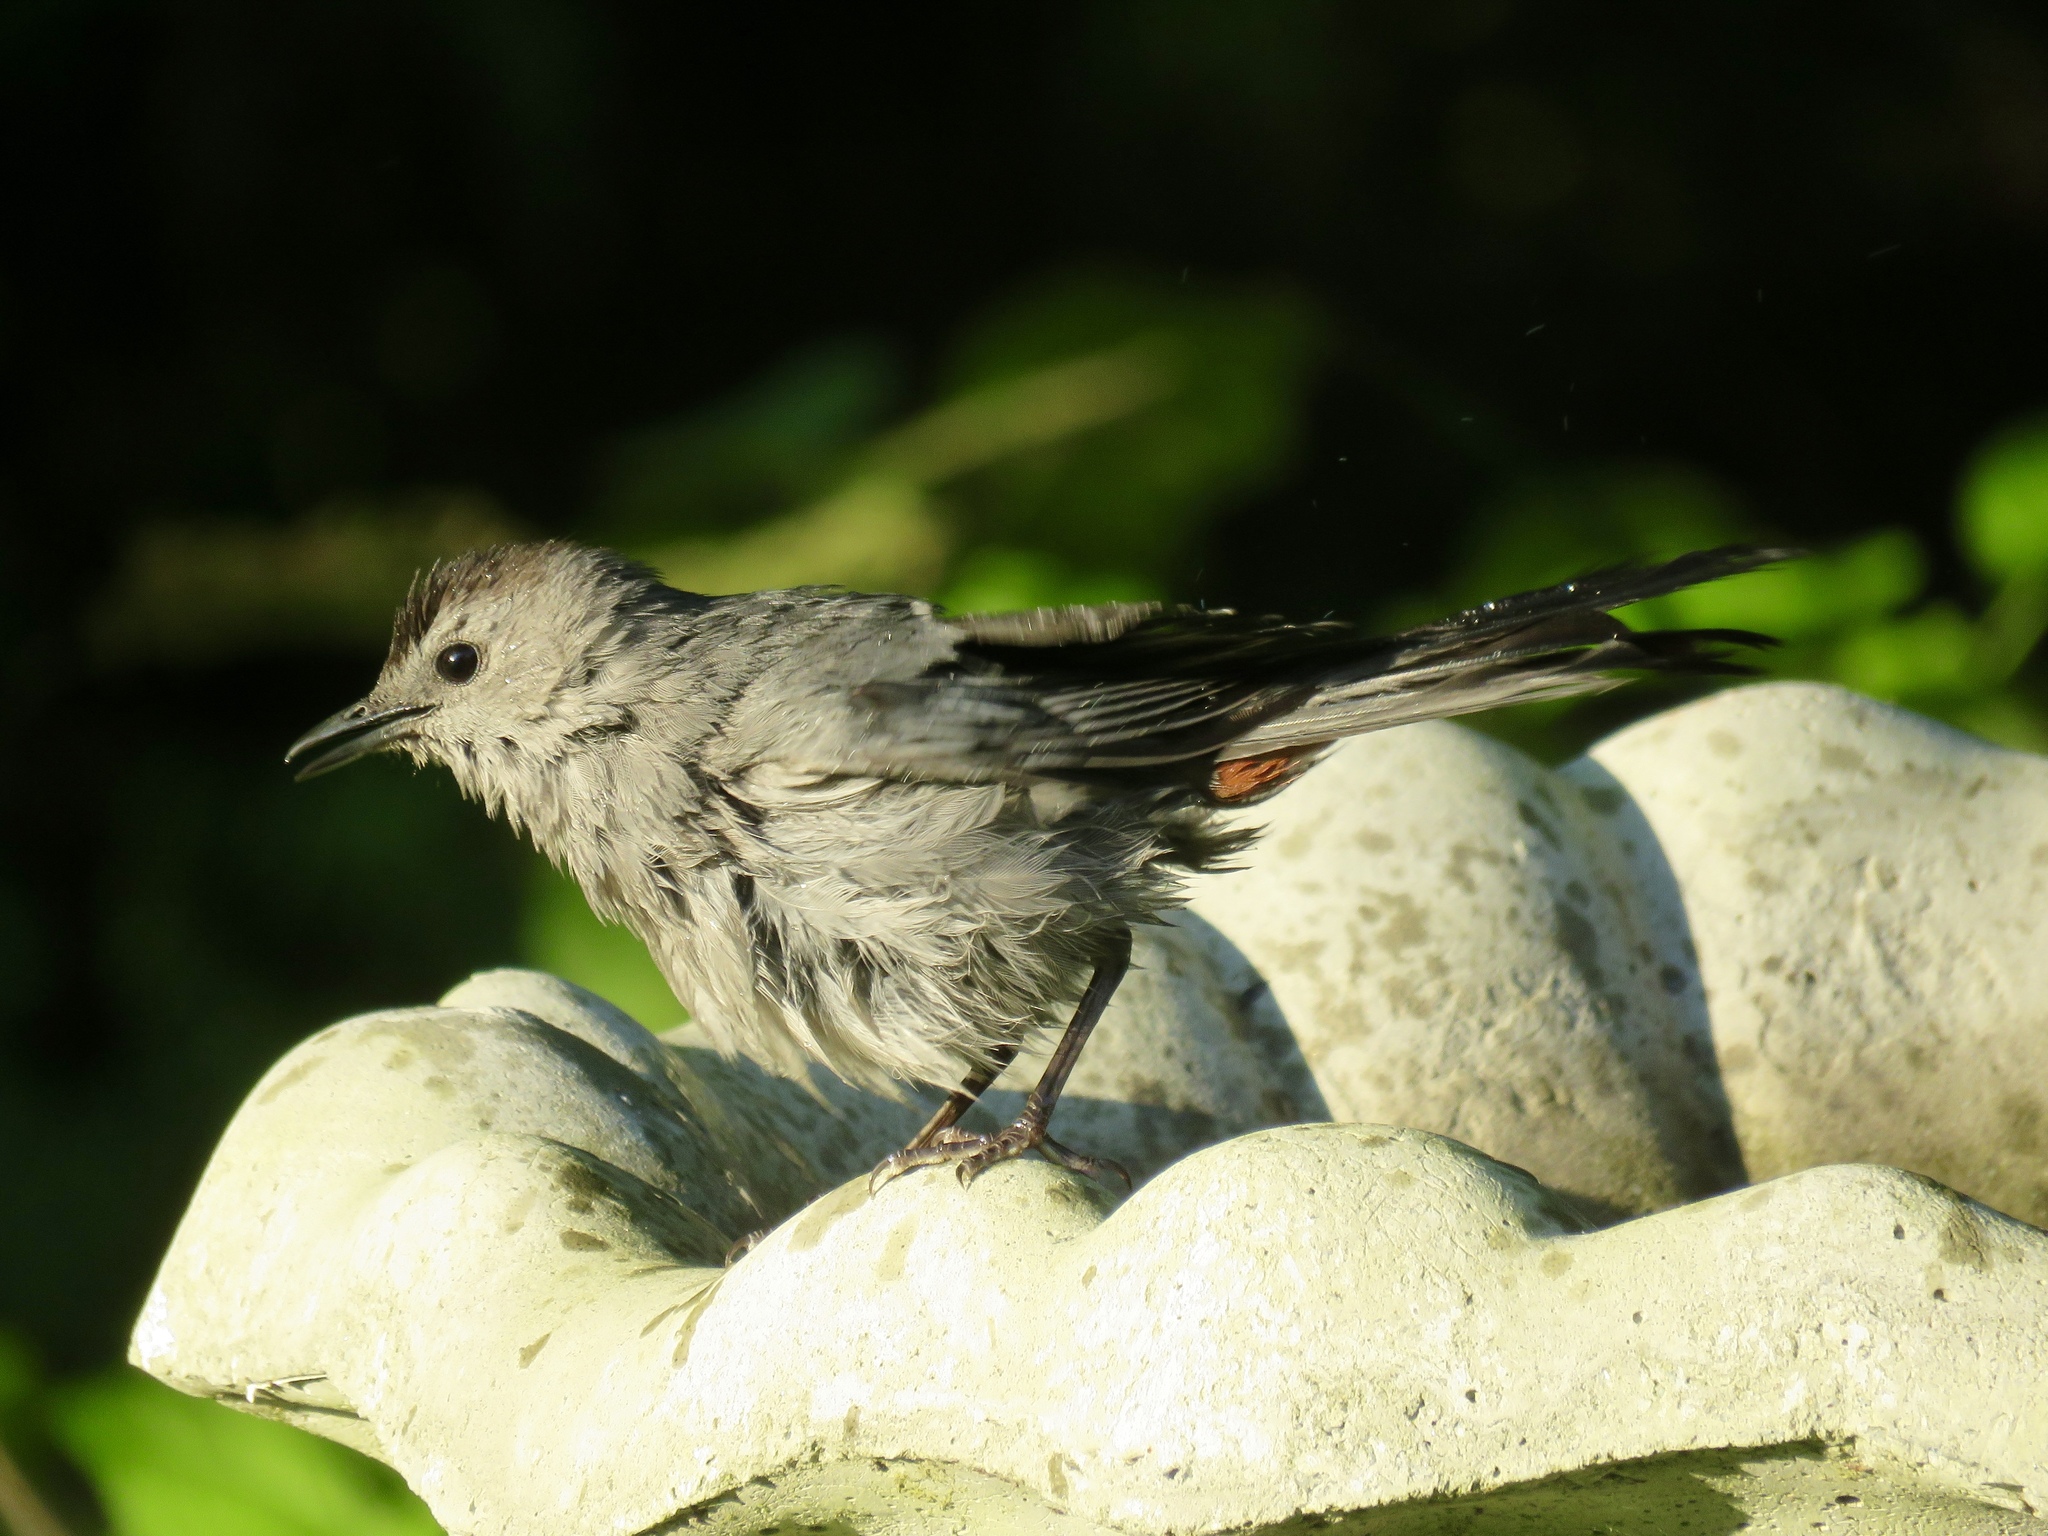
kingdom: Animalia
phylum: Chordata
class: Aves
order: Passeriformes
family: Mimidae
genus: Dumetella
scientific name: Dumetella carolinensis
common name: Gray catbird
